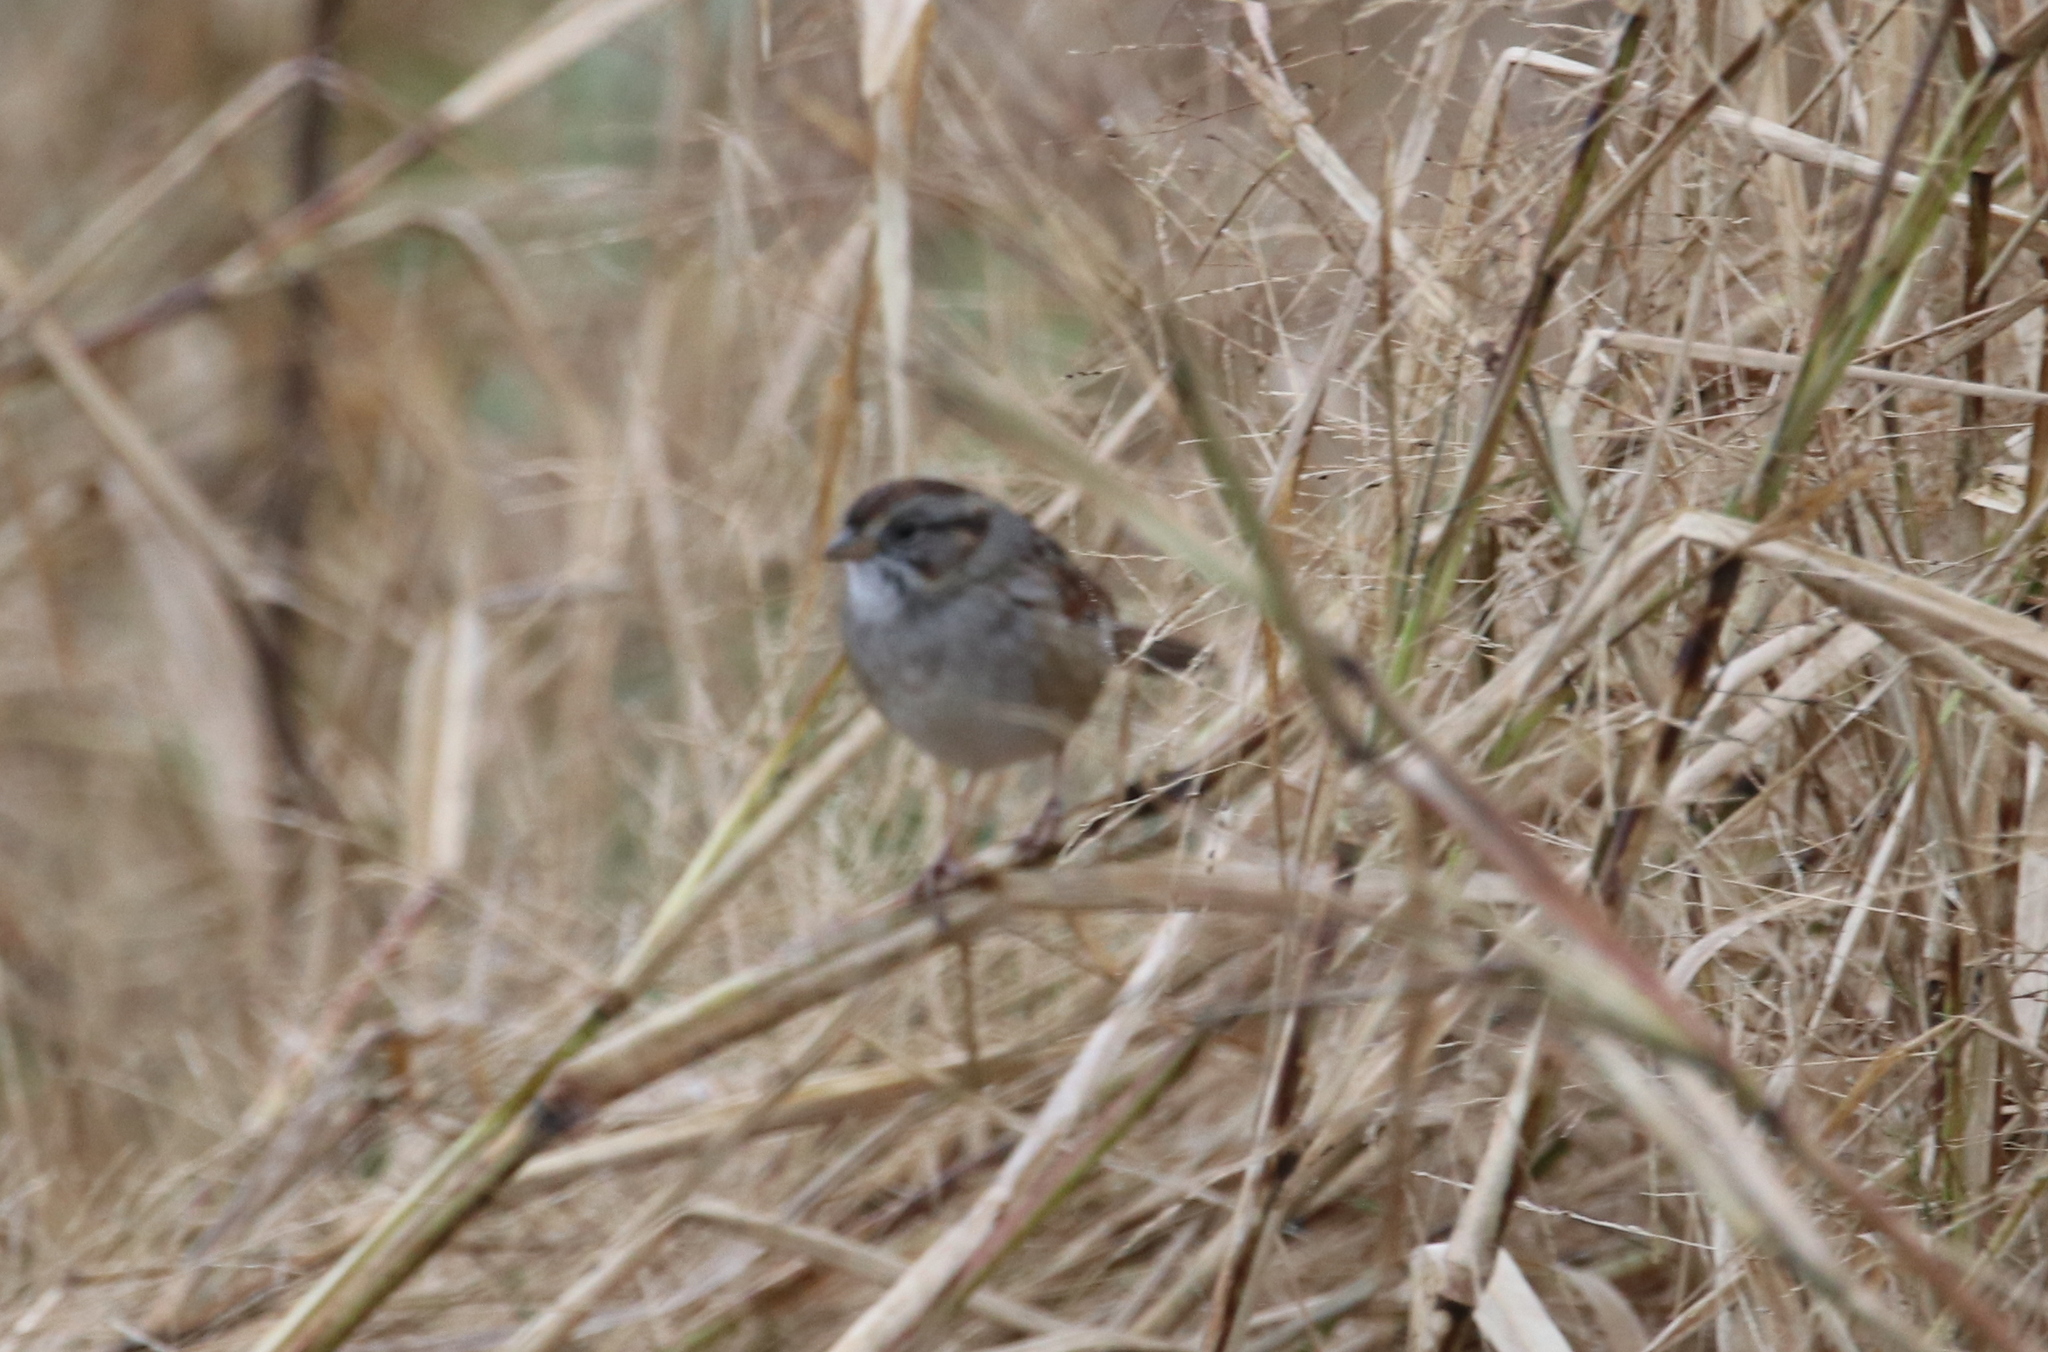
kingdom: Animalia
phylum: Chordata
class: Aves
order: Passeriformes
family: Passerellidae
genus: Melospiza
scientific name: Melospiza georgiana
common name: Swamp sparrow
